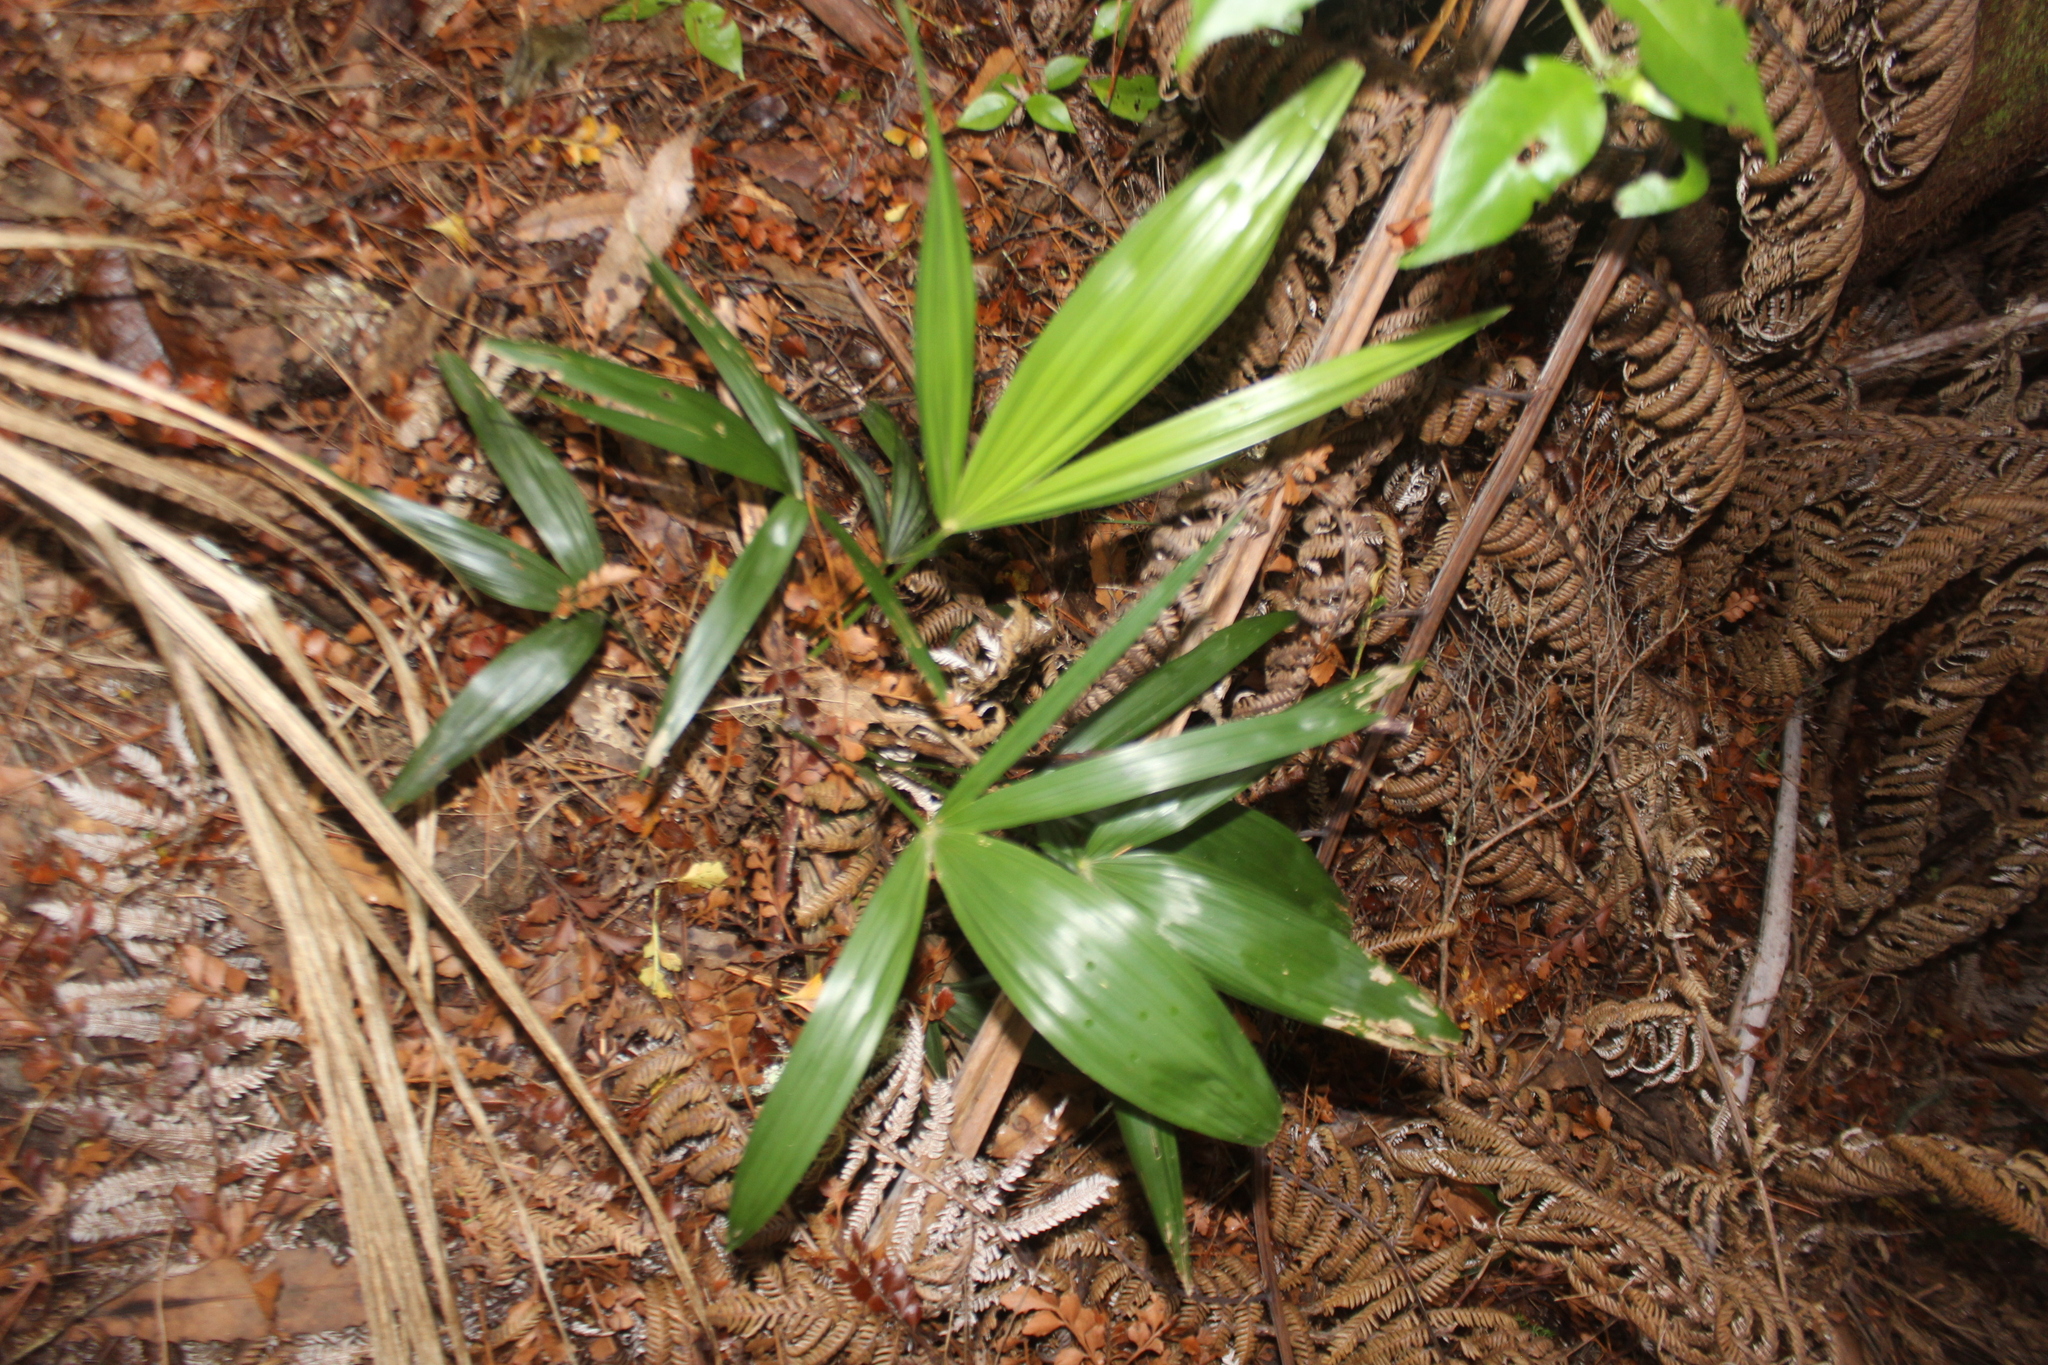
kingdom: Plantae
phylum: Tracheophyta
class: Liliopsida
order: Arecales
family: Arecaceae
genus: Archontophoenix
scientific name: Archontophoenix cunninghamiana
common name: Piccabeen bangalow palm
